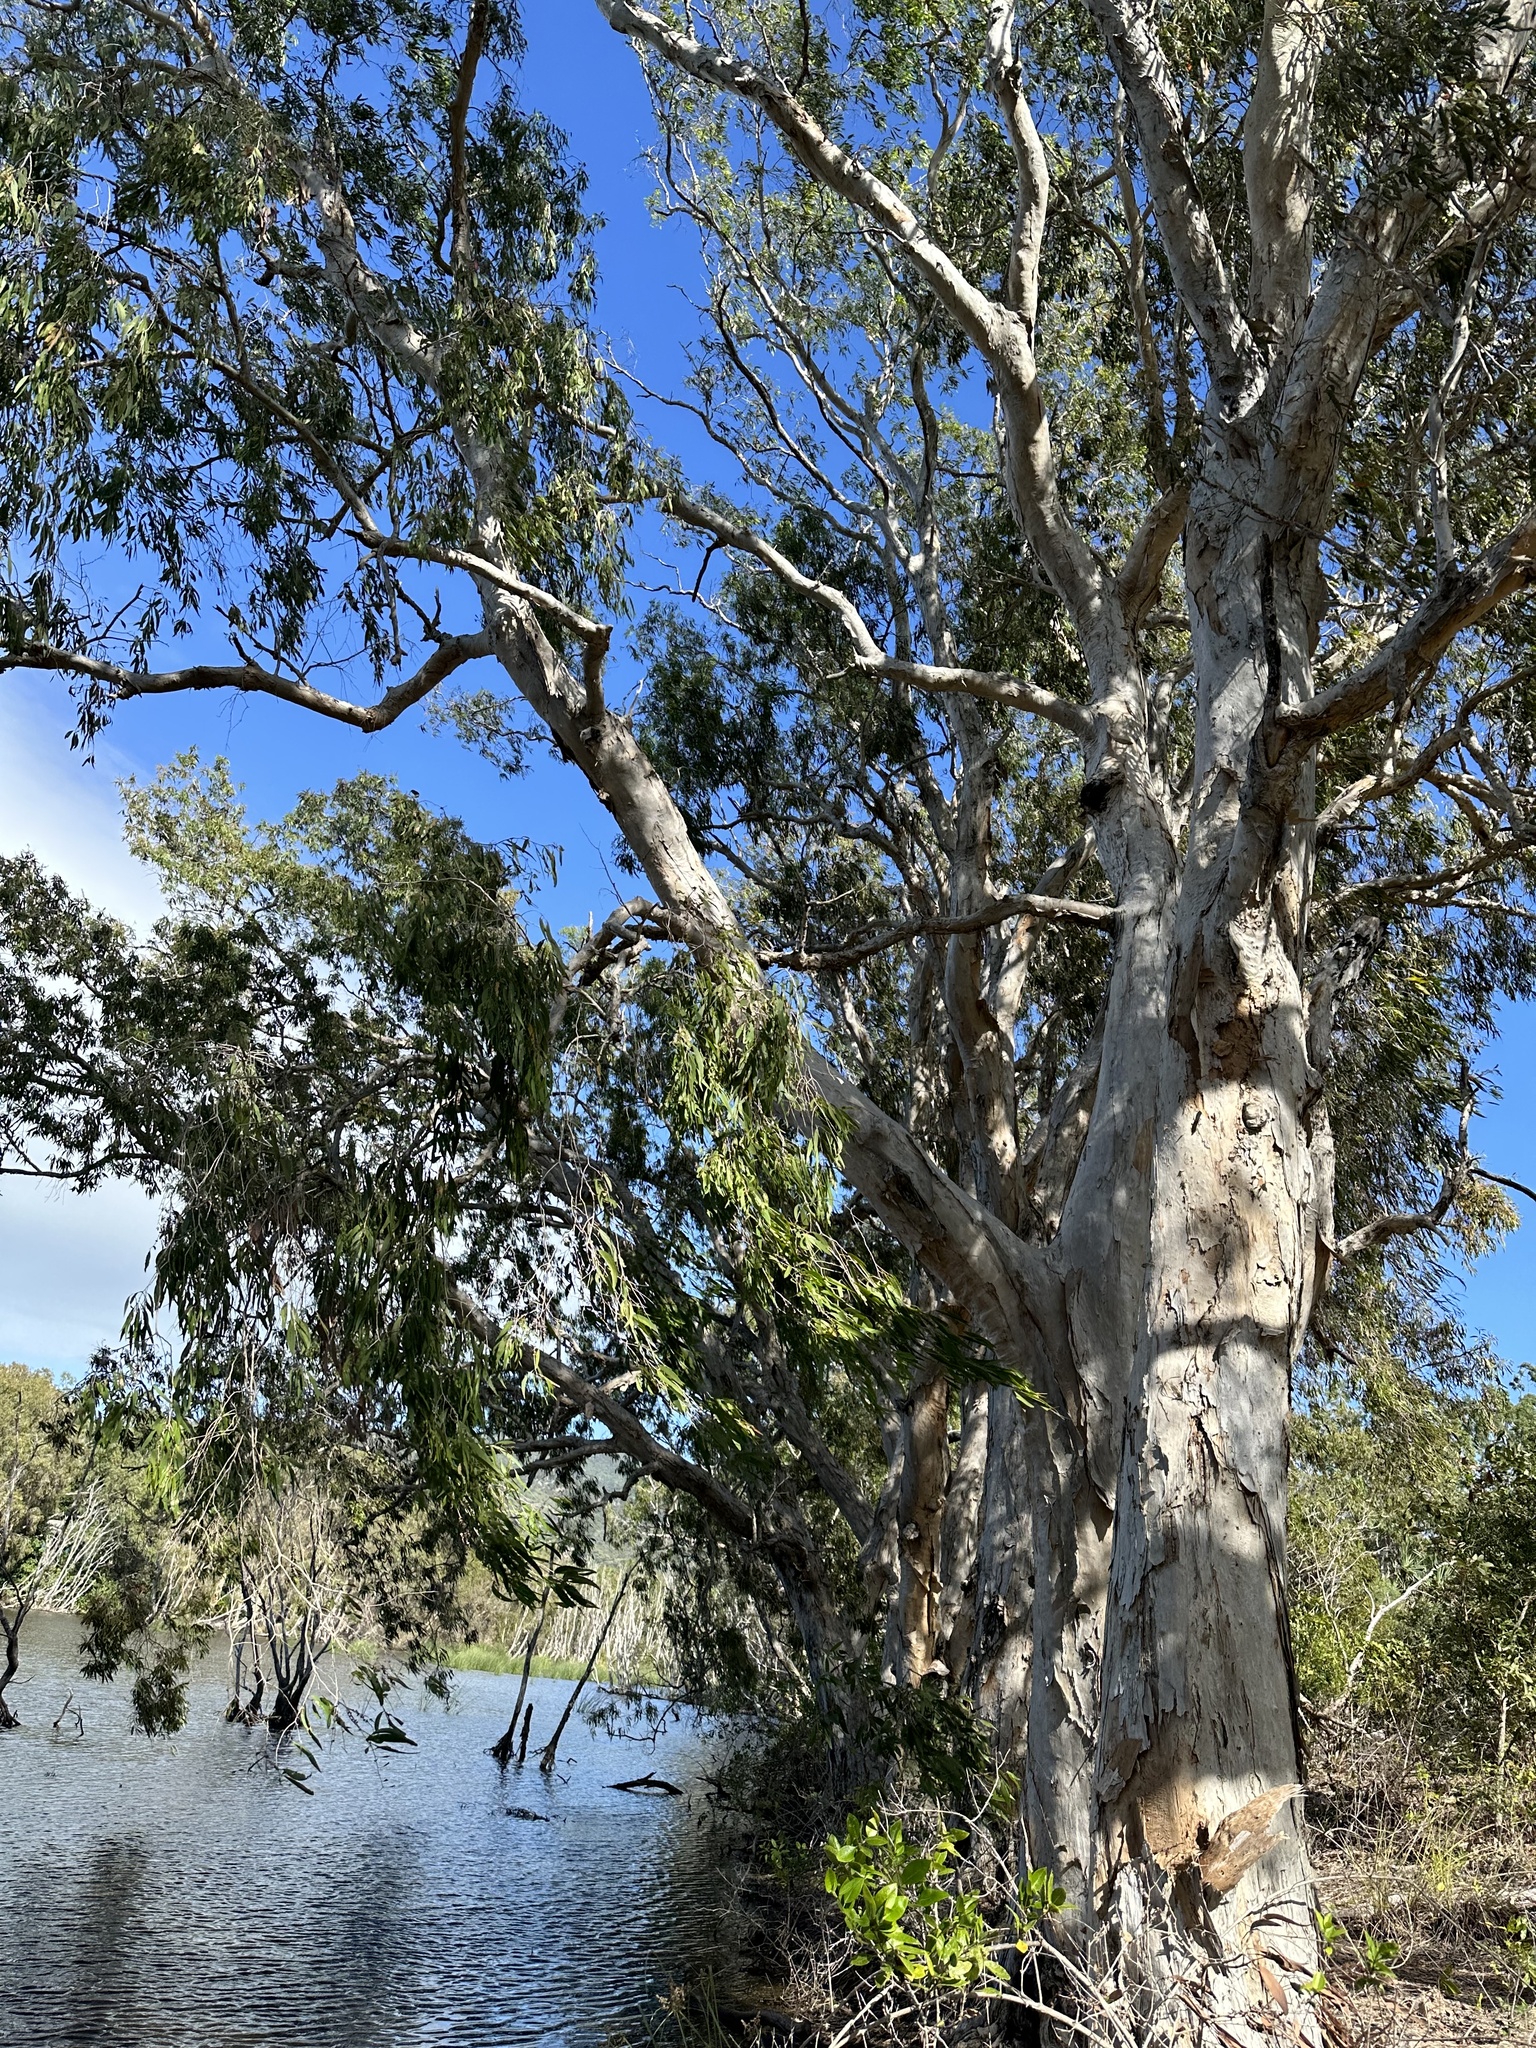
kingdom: Plantae
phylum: Tracheophyta
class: Magnoliopsida
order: Myrtales
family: Myrtaceae
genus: Melaleuca
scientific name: Melaleuca leucadendra
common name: Weeping paperbark
